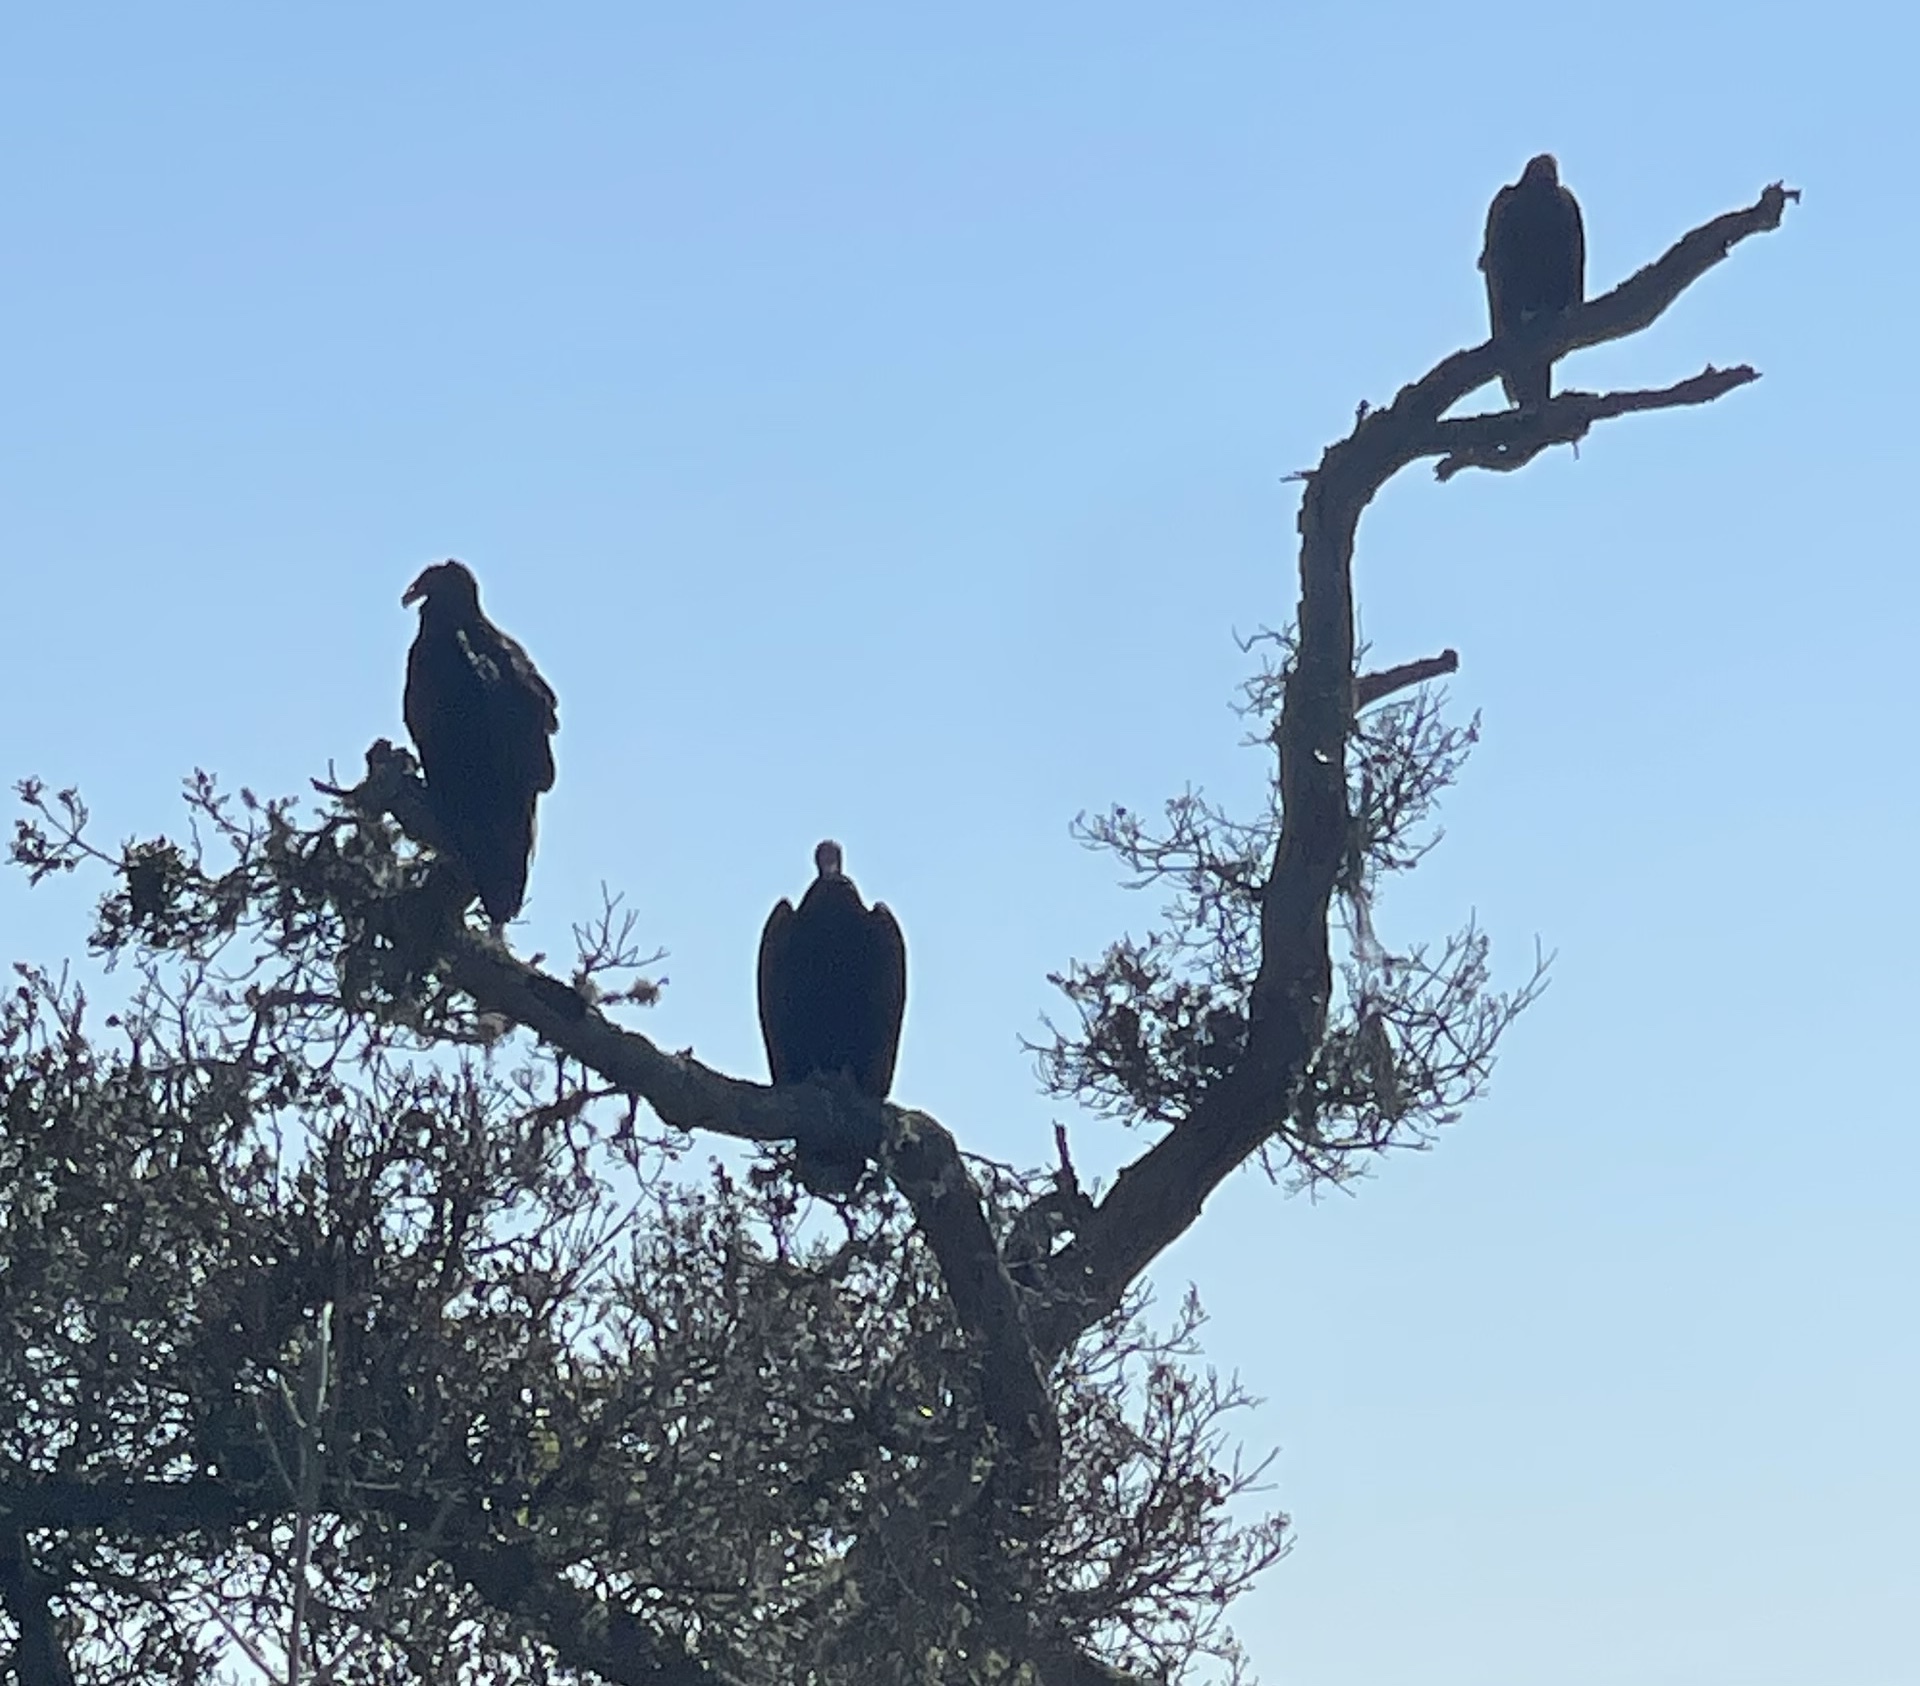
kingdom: Animalia
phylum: Chordata
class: Aves
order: Accipitriformes
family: Cathartidae
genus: Cathartes
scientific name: Cathartes aura
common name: Turkey vulture
